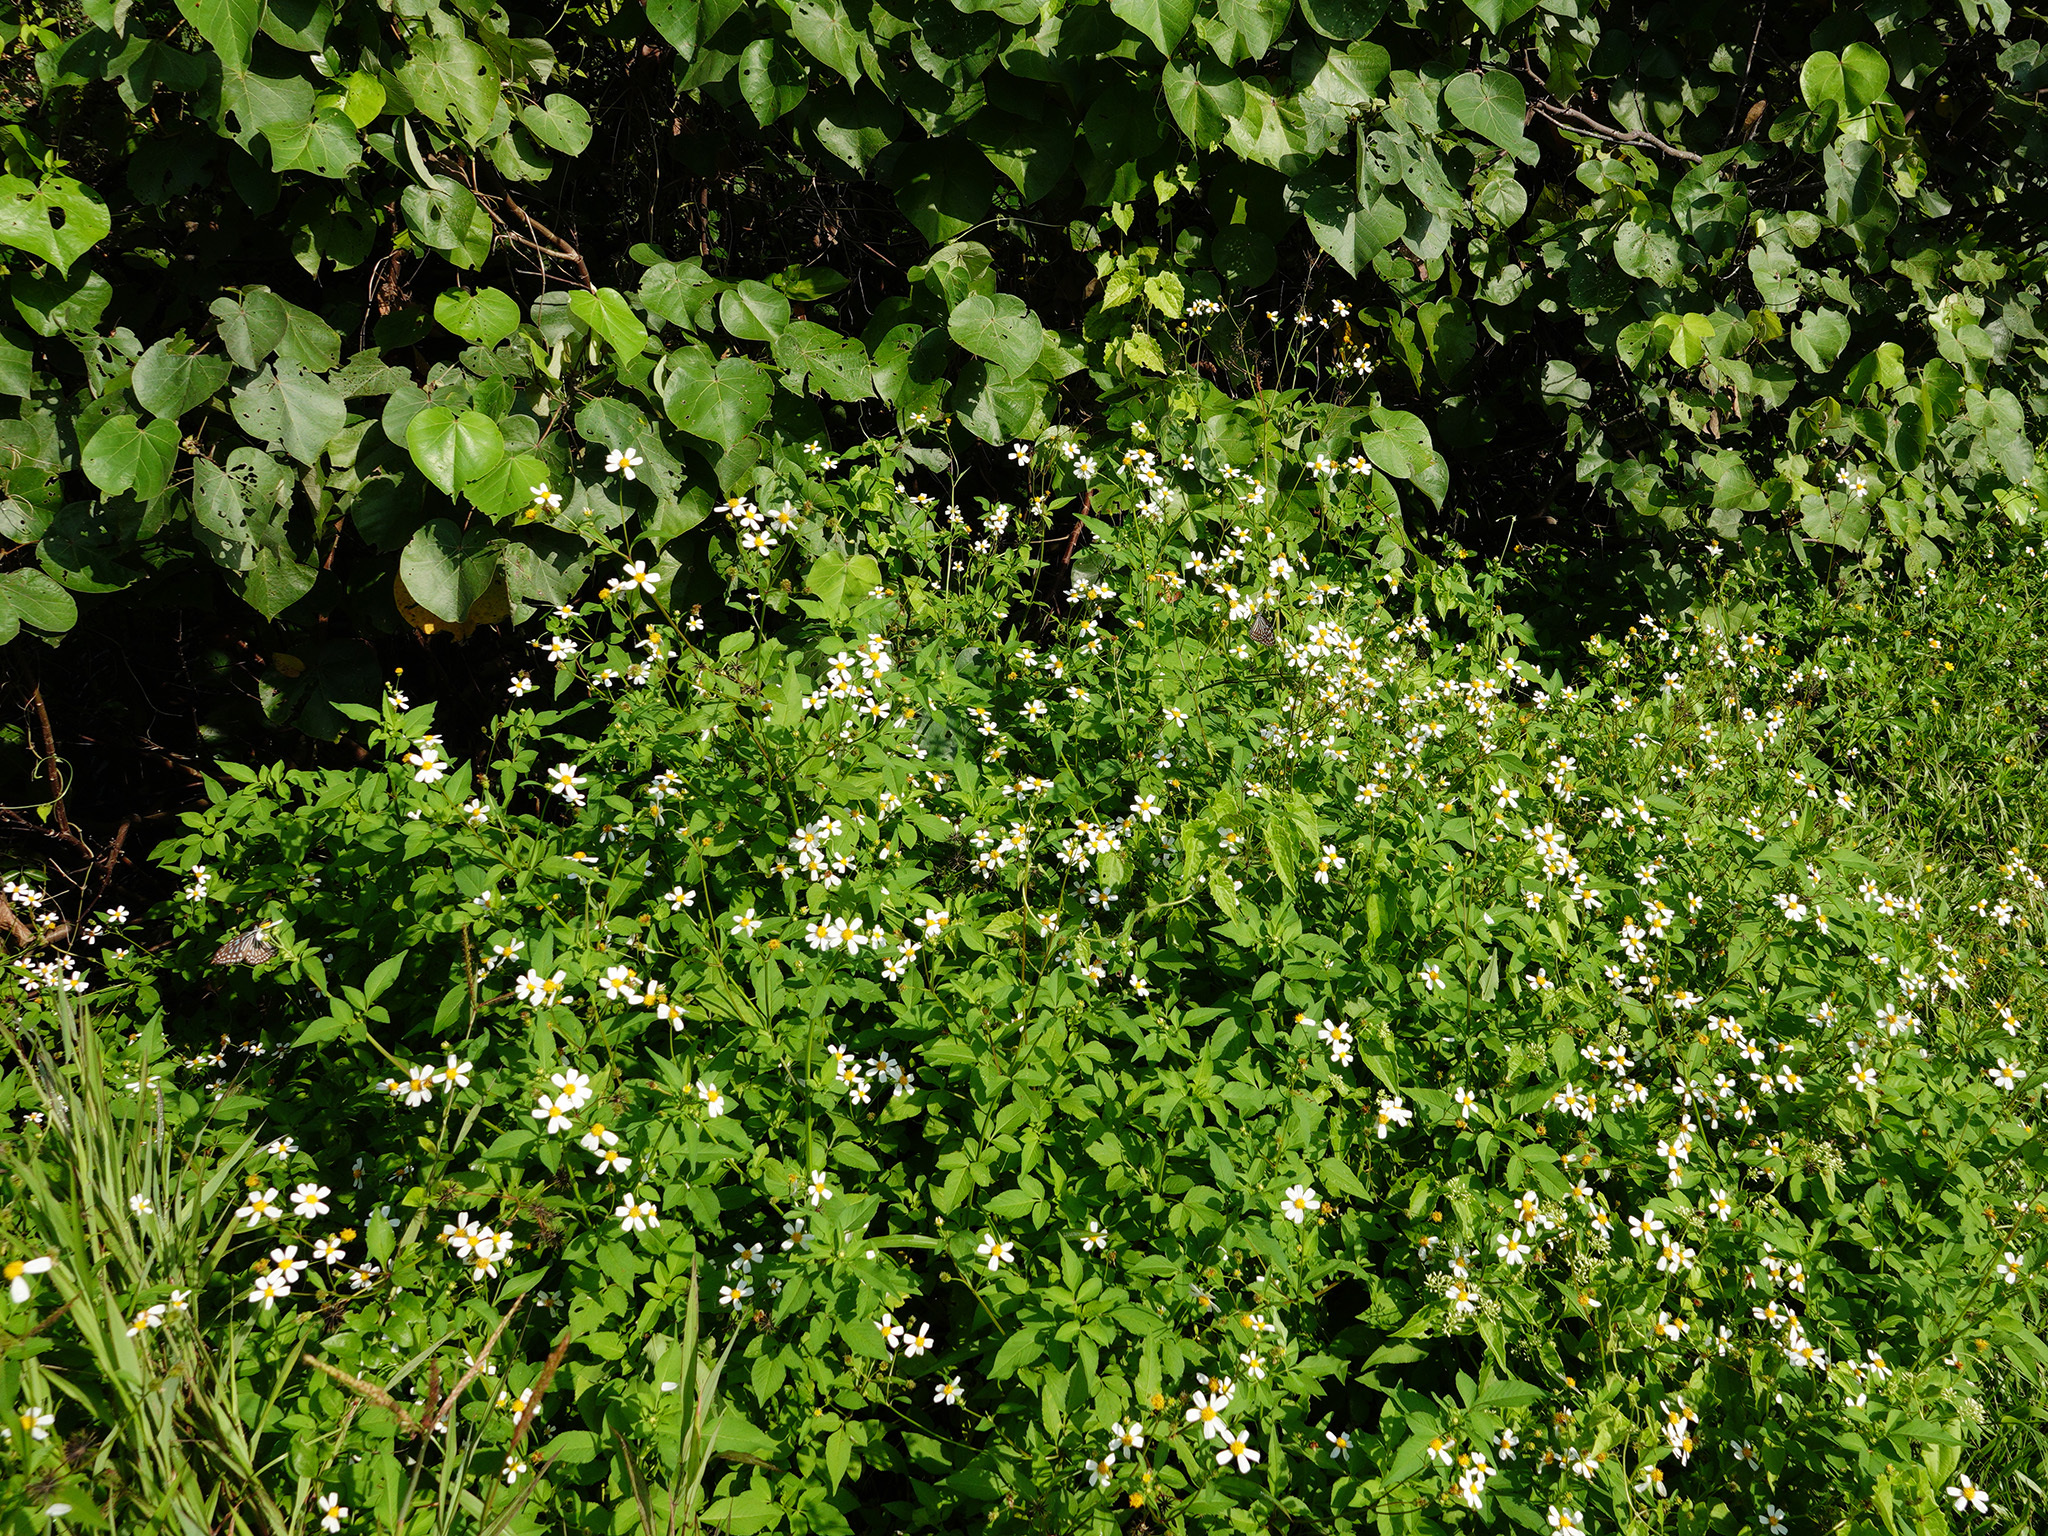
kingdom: Plantae
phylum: Tracheophyta
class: Magnoliopsida
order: Asterales
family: Asteraceae
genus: Bidens
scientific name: Bidens pilosa
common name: Black-jack
